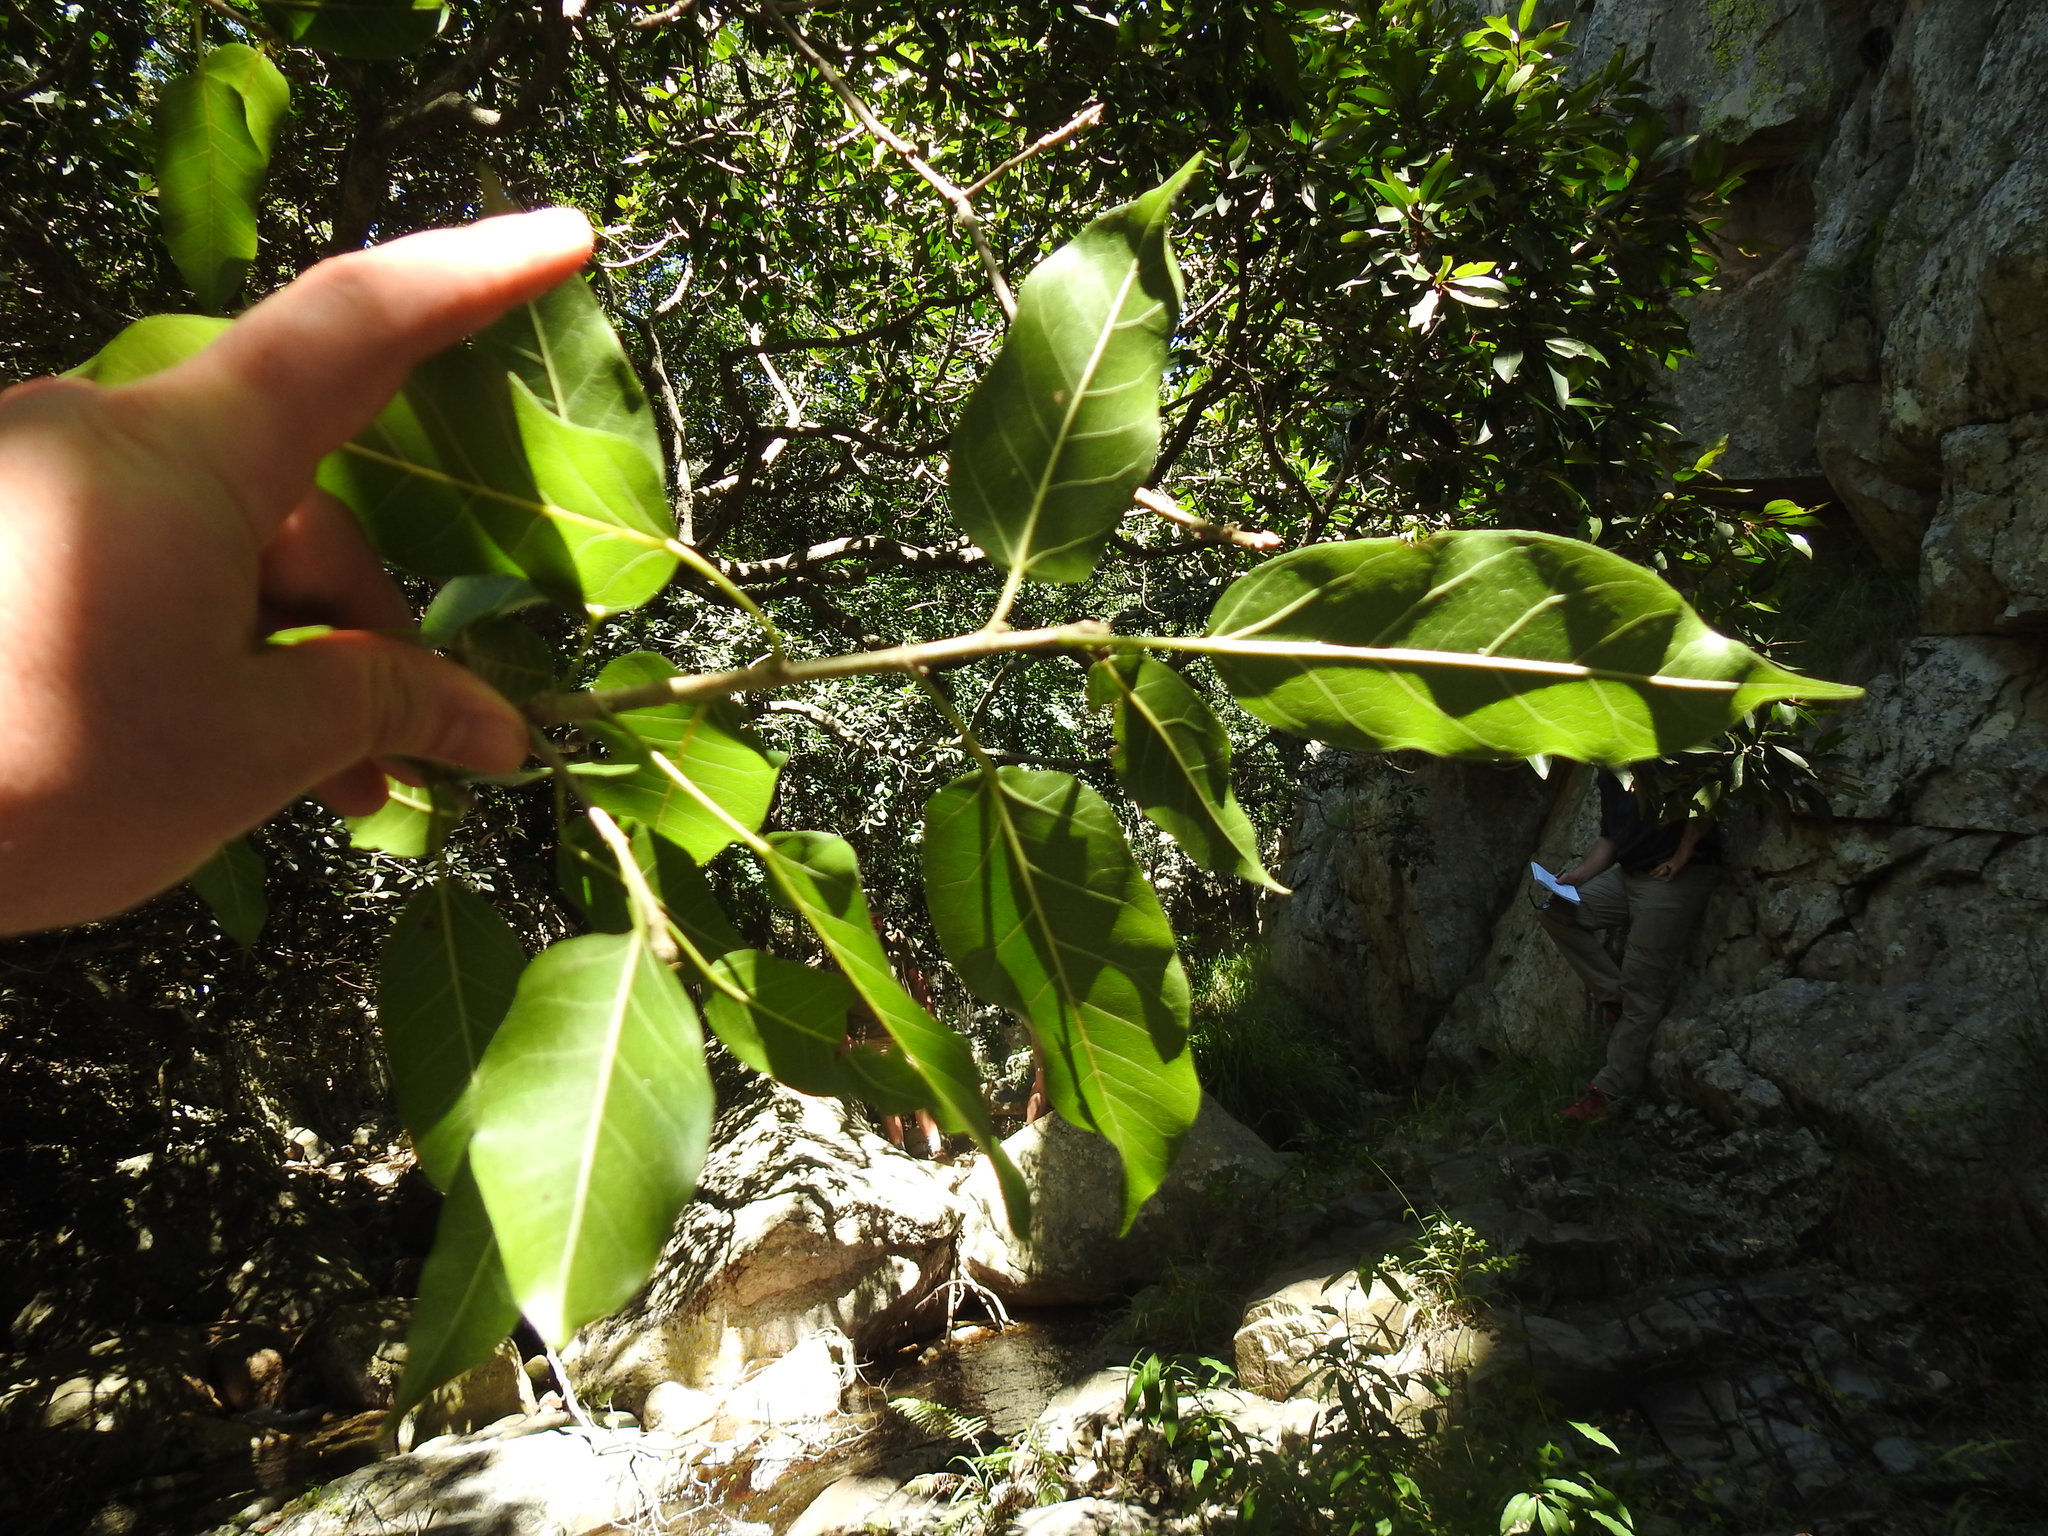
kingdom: Plantae
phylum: Tracheophyta
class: Magnoliopsida
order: Rosales
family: Moraceae
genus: Ficus
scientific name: Ficus ingens
